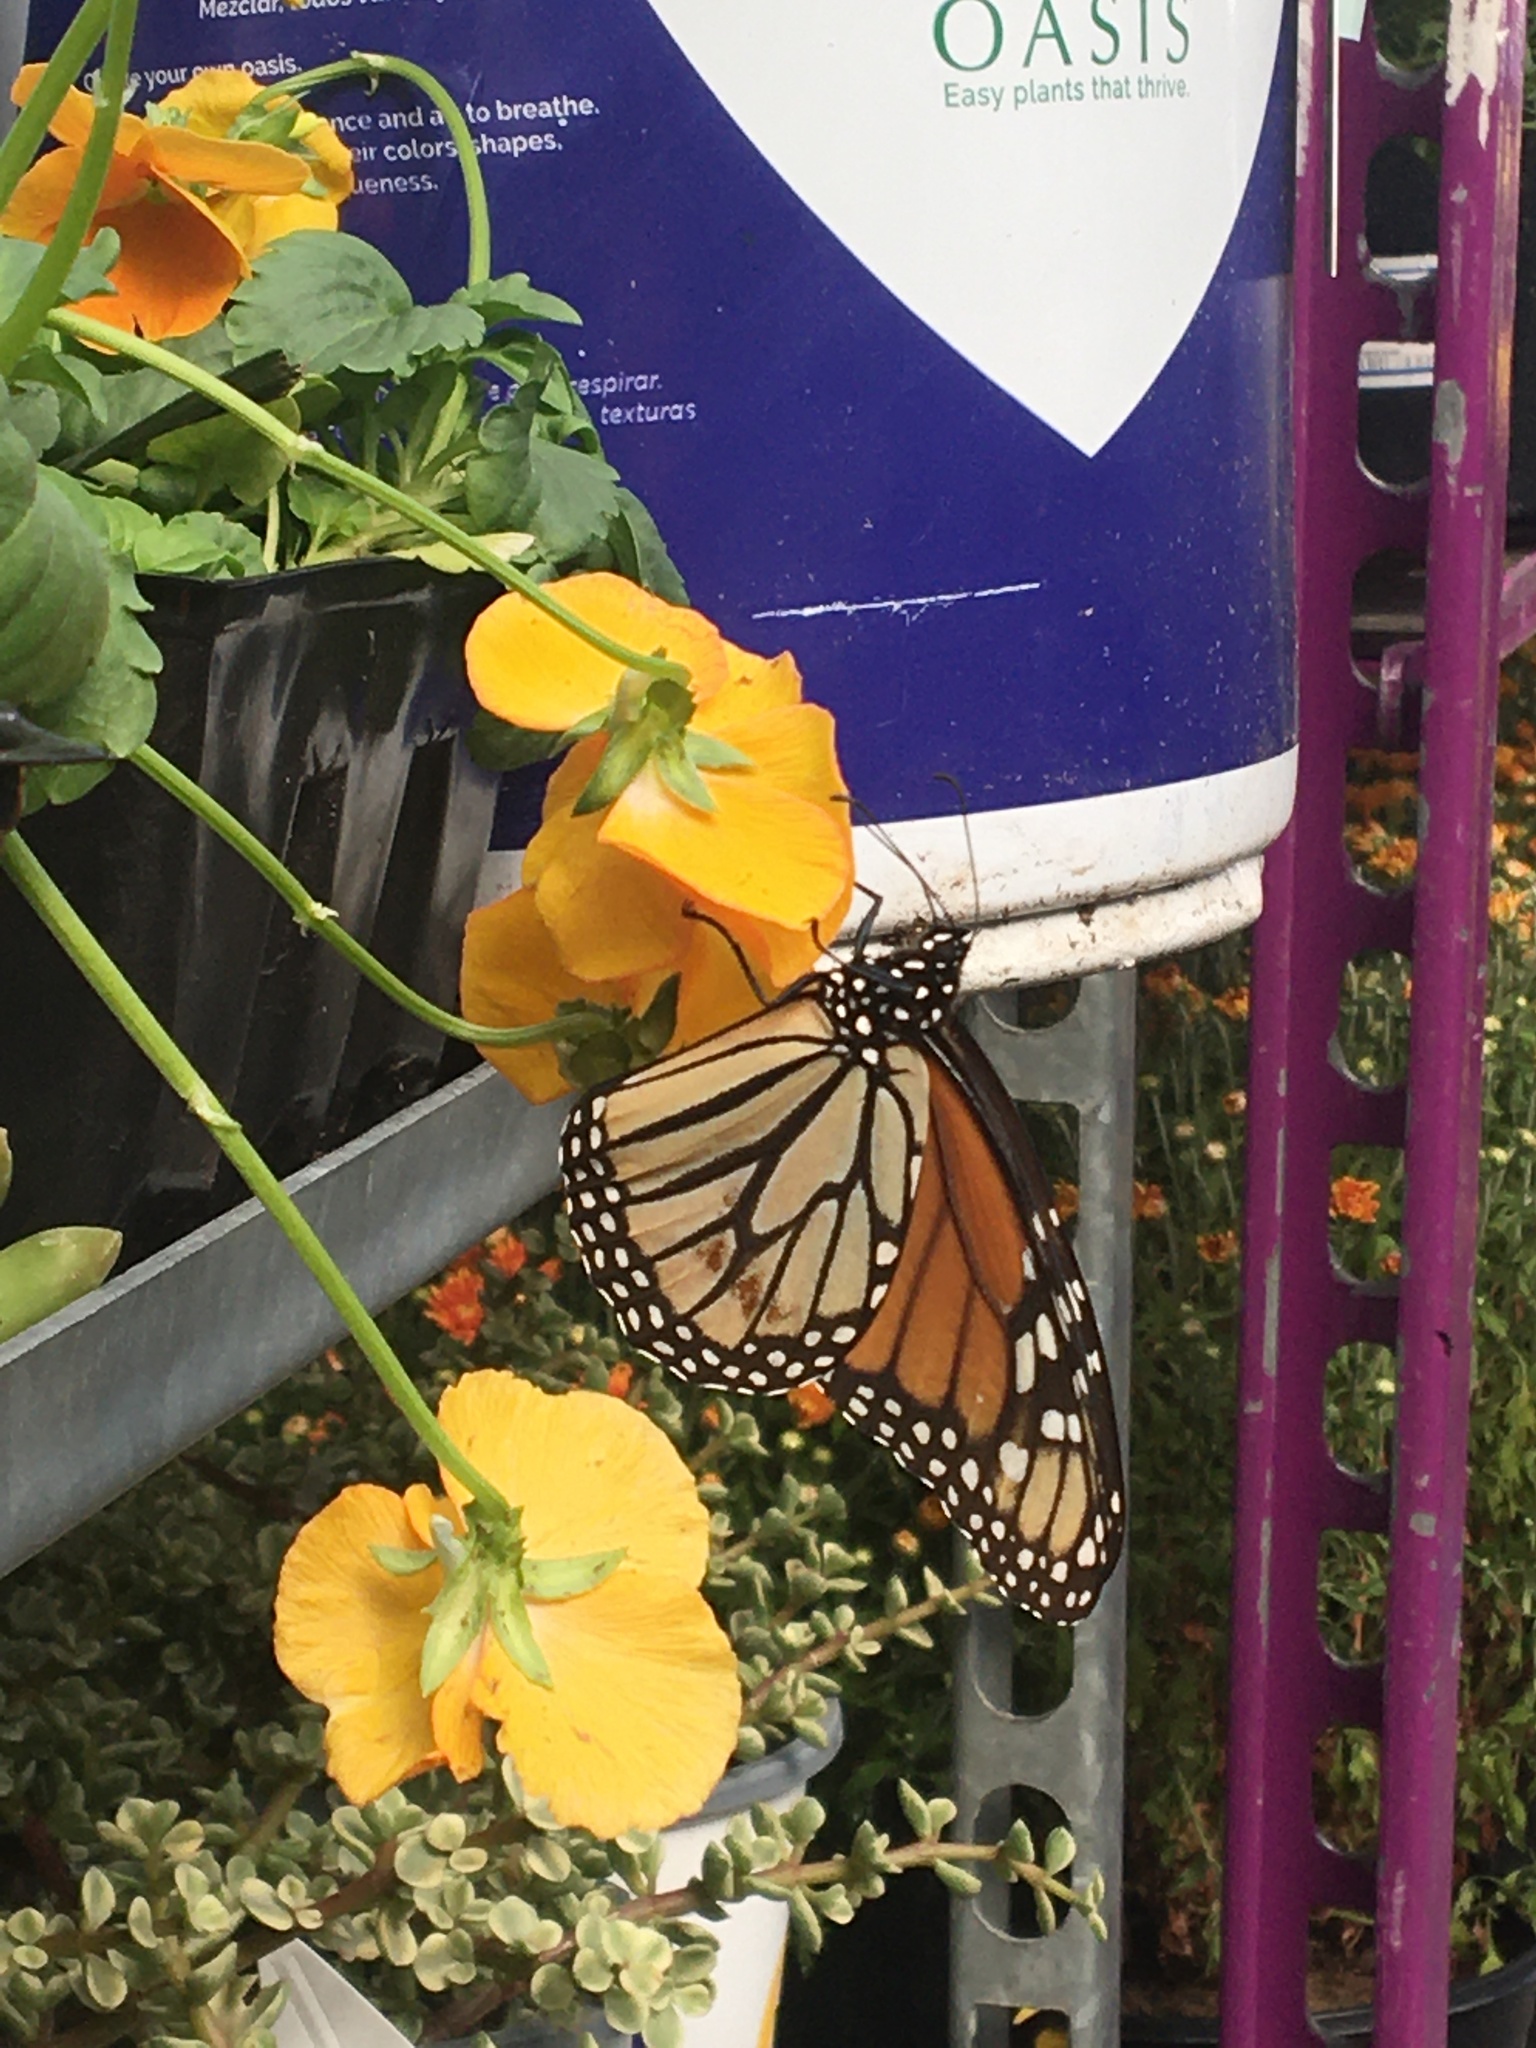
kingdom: Animalia
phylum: Arthropoda
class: Insecta
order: Lepidoptera
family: Nymphalidae
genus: Danaus
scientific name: Danaus plexippus
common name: Monarch
